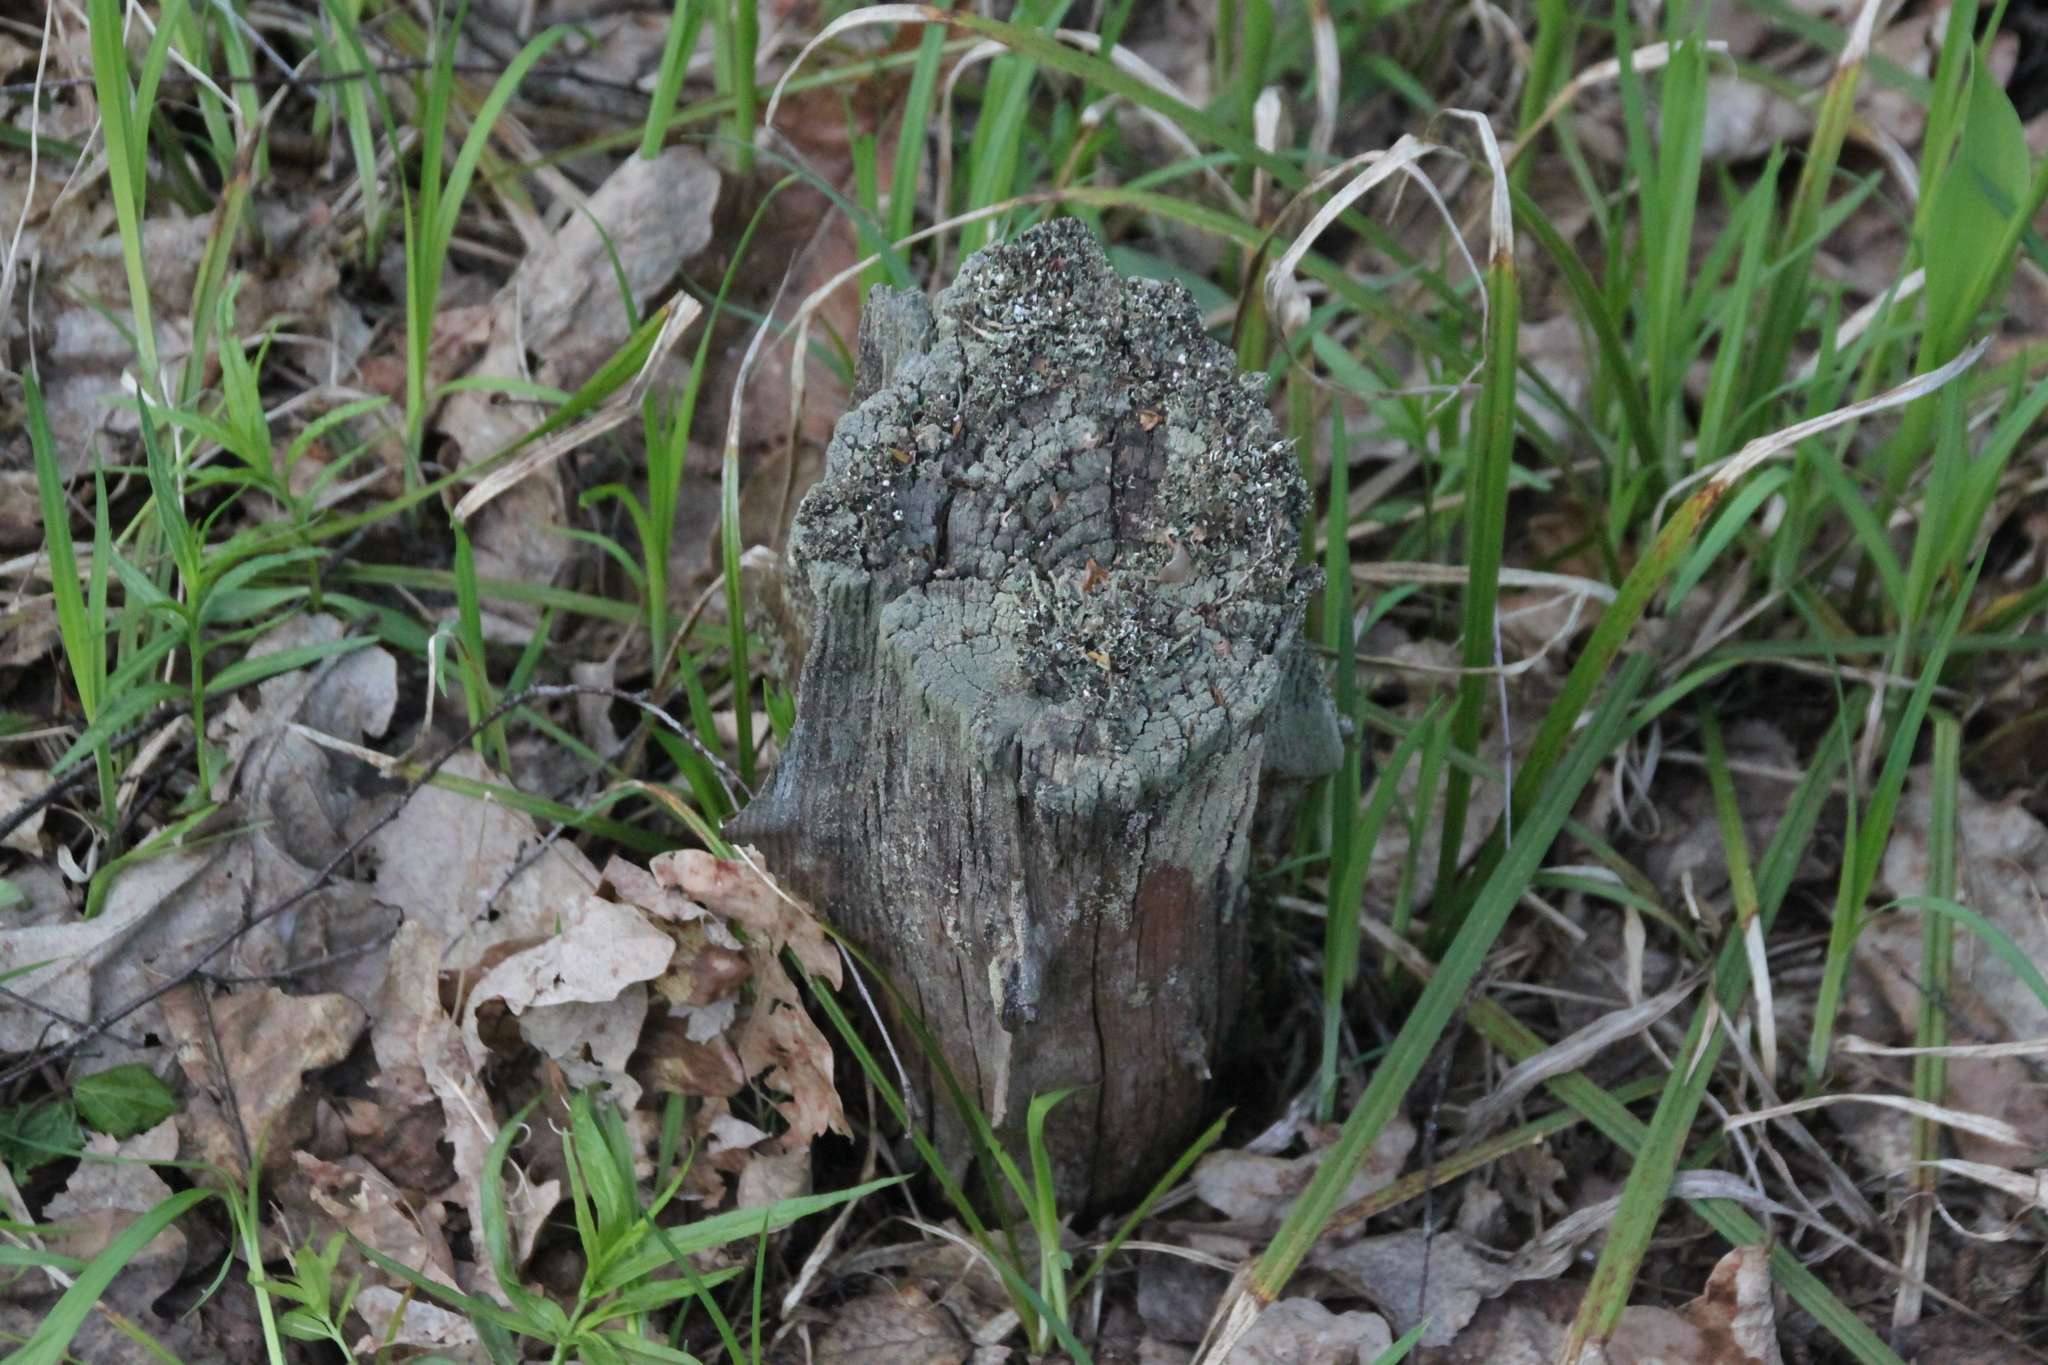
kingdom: Plantae
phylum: Tracheophyta
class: Magnoliopsida
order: Fagales
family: Fagaceae
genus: Quercus
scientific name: Quercus robur
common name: Pedunculate oak
